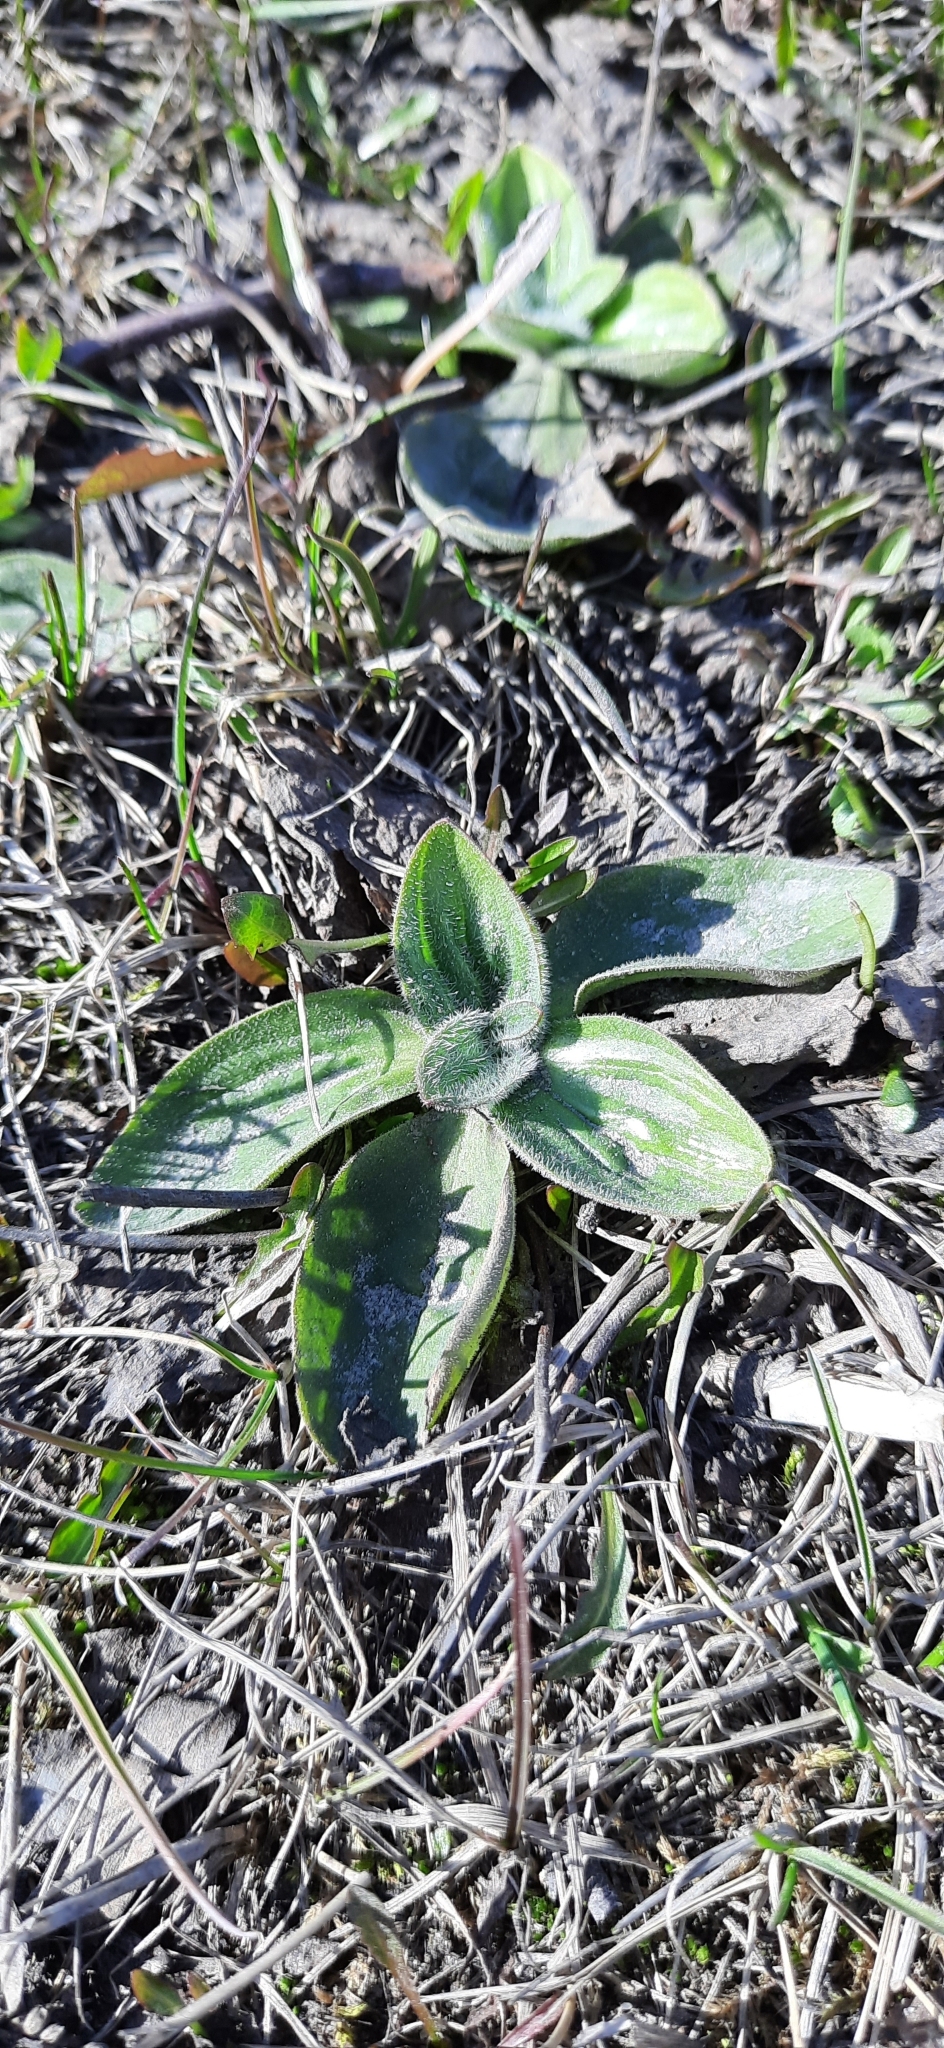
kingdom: Plantae
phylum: Tracheophyta
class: Magnoliopsida
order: Lamiales
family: Plantaginaceae
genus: Plantago
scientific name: Plantago media
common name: Hoary plantain
